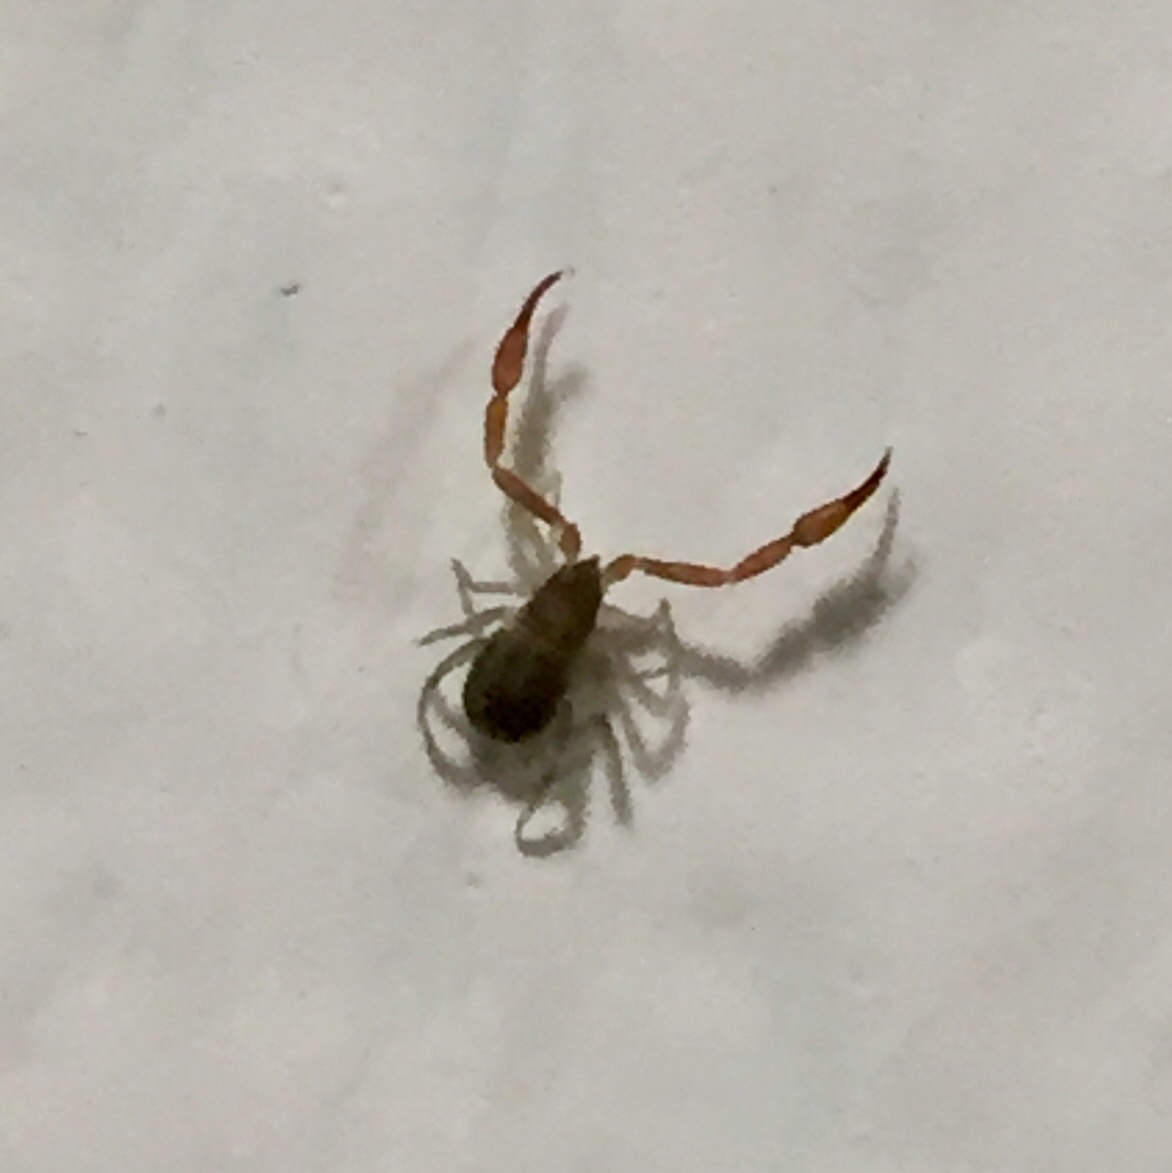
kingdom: Animalia
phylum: Arthropoda
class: Arachnida
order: Pseudoscorpiones
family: Cheliferidae
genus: Chelifer
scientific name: Chelifer cancroides
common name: House false-scorpion
